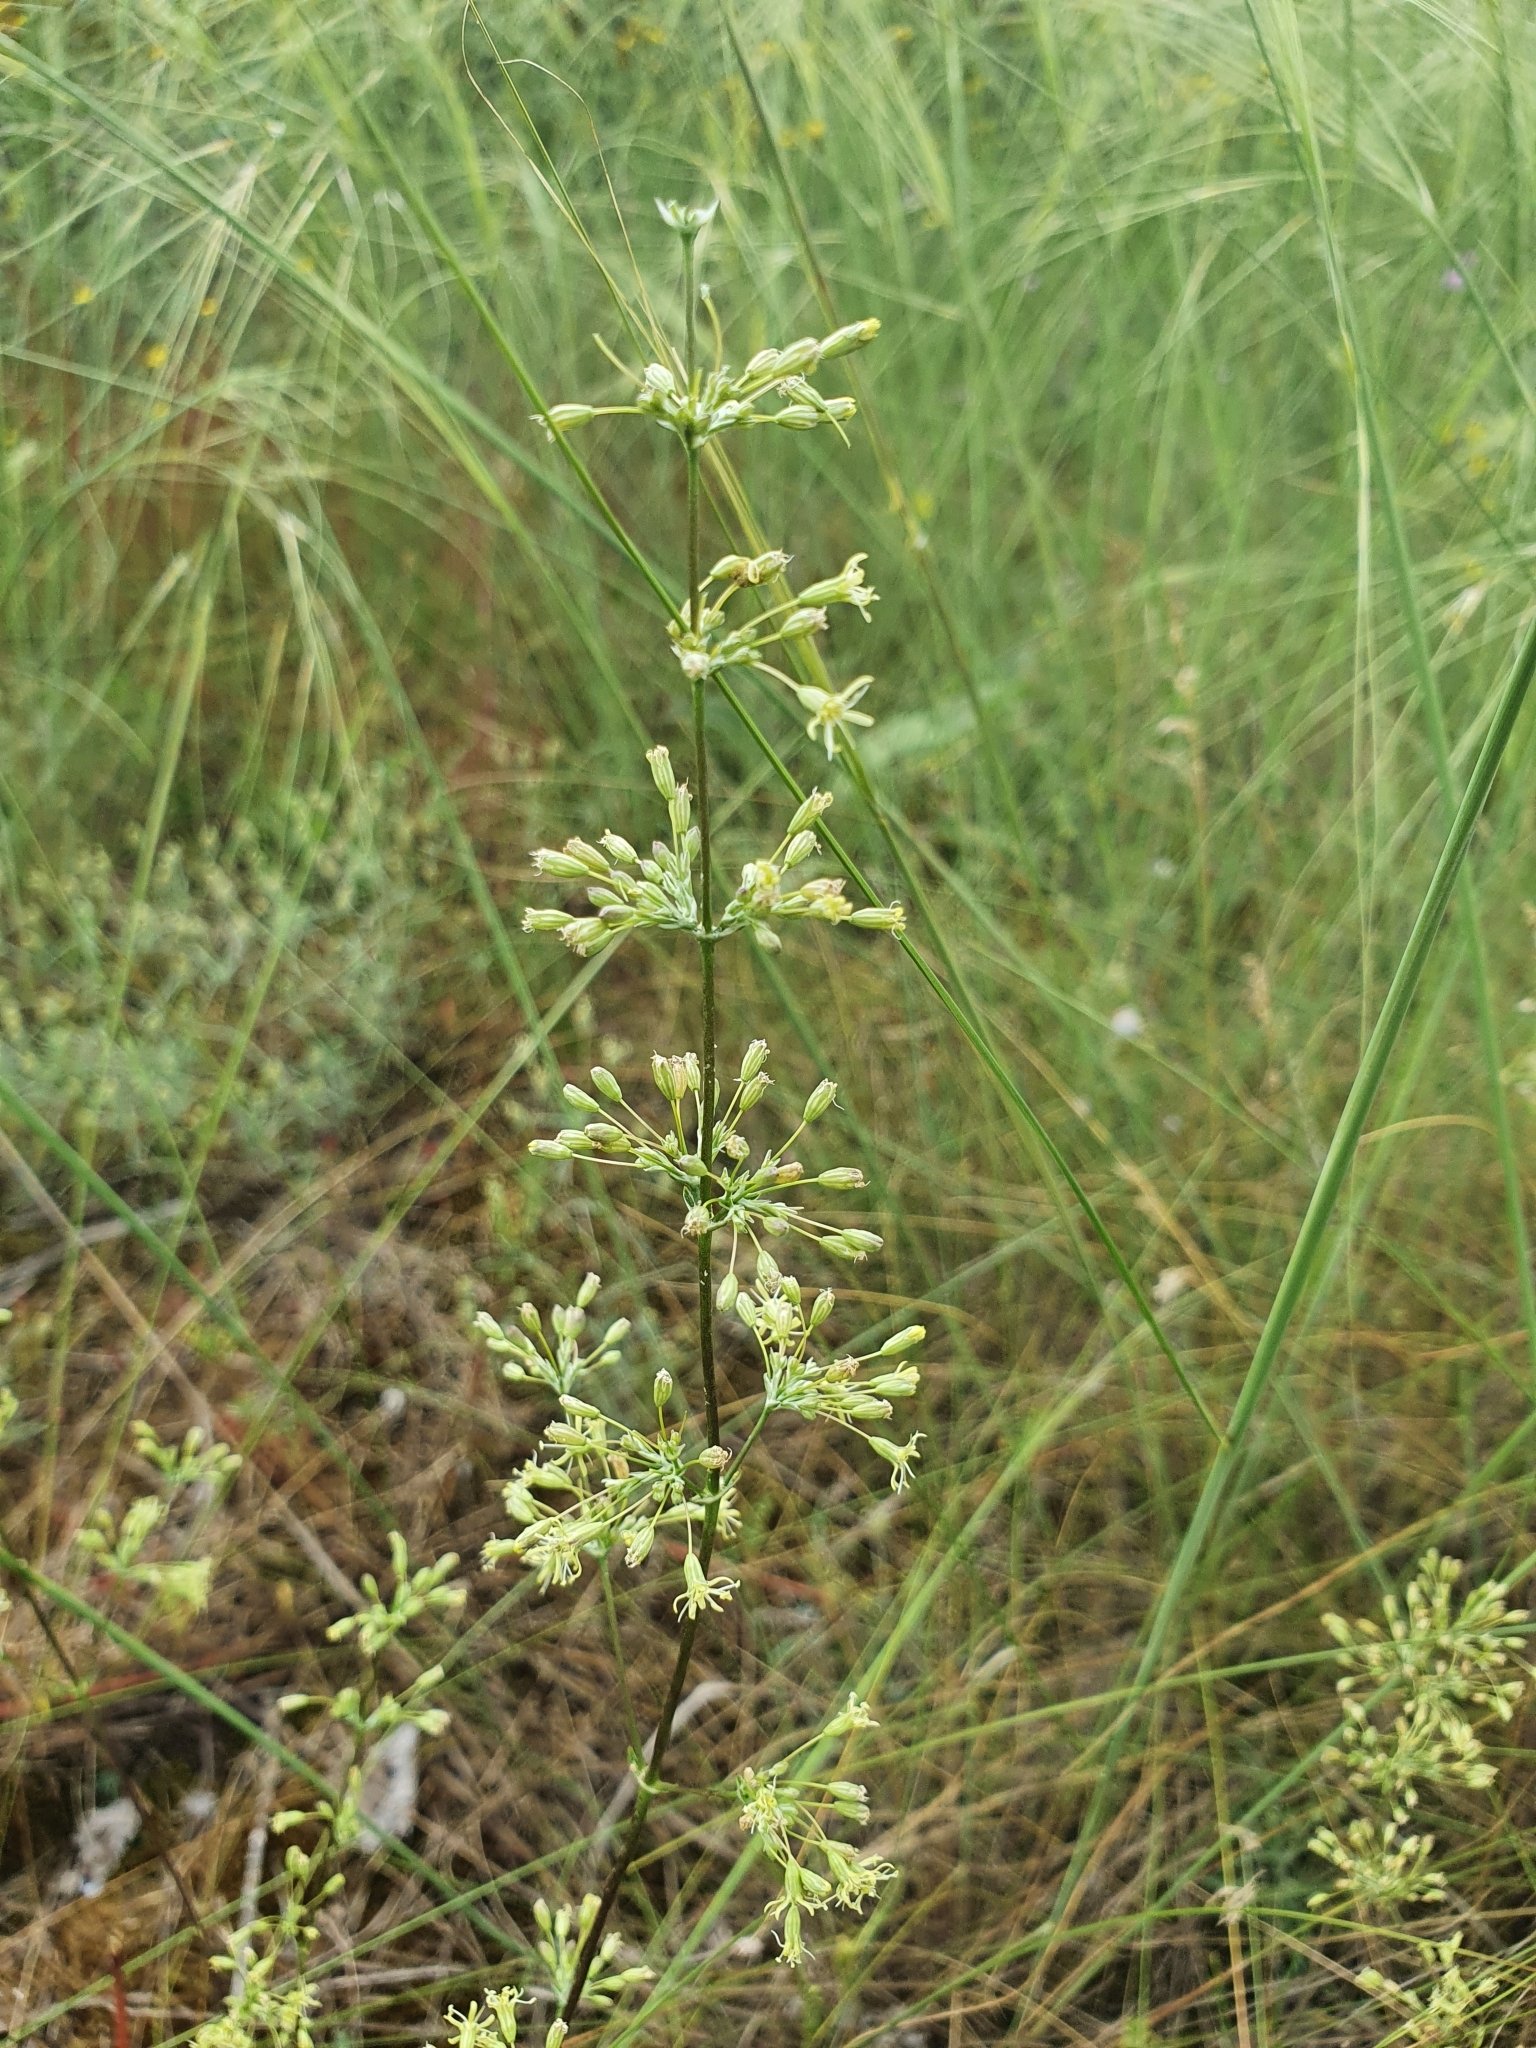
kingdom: Plantae
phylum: Tracheophyta
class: Magnoliopsida
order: Caryophyllales
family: Caryophyllaceae
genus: Silene
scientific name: Silene otites
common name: Spanish catchfly
